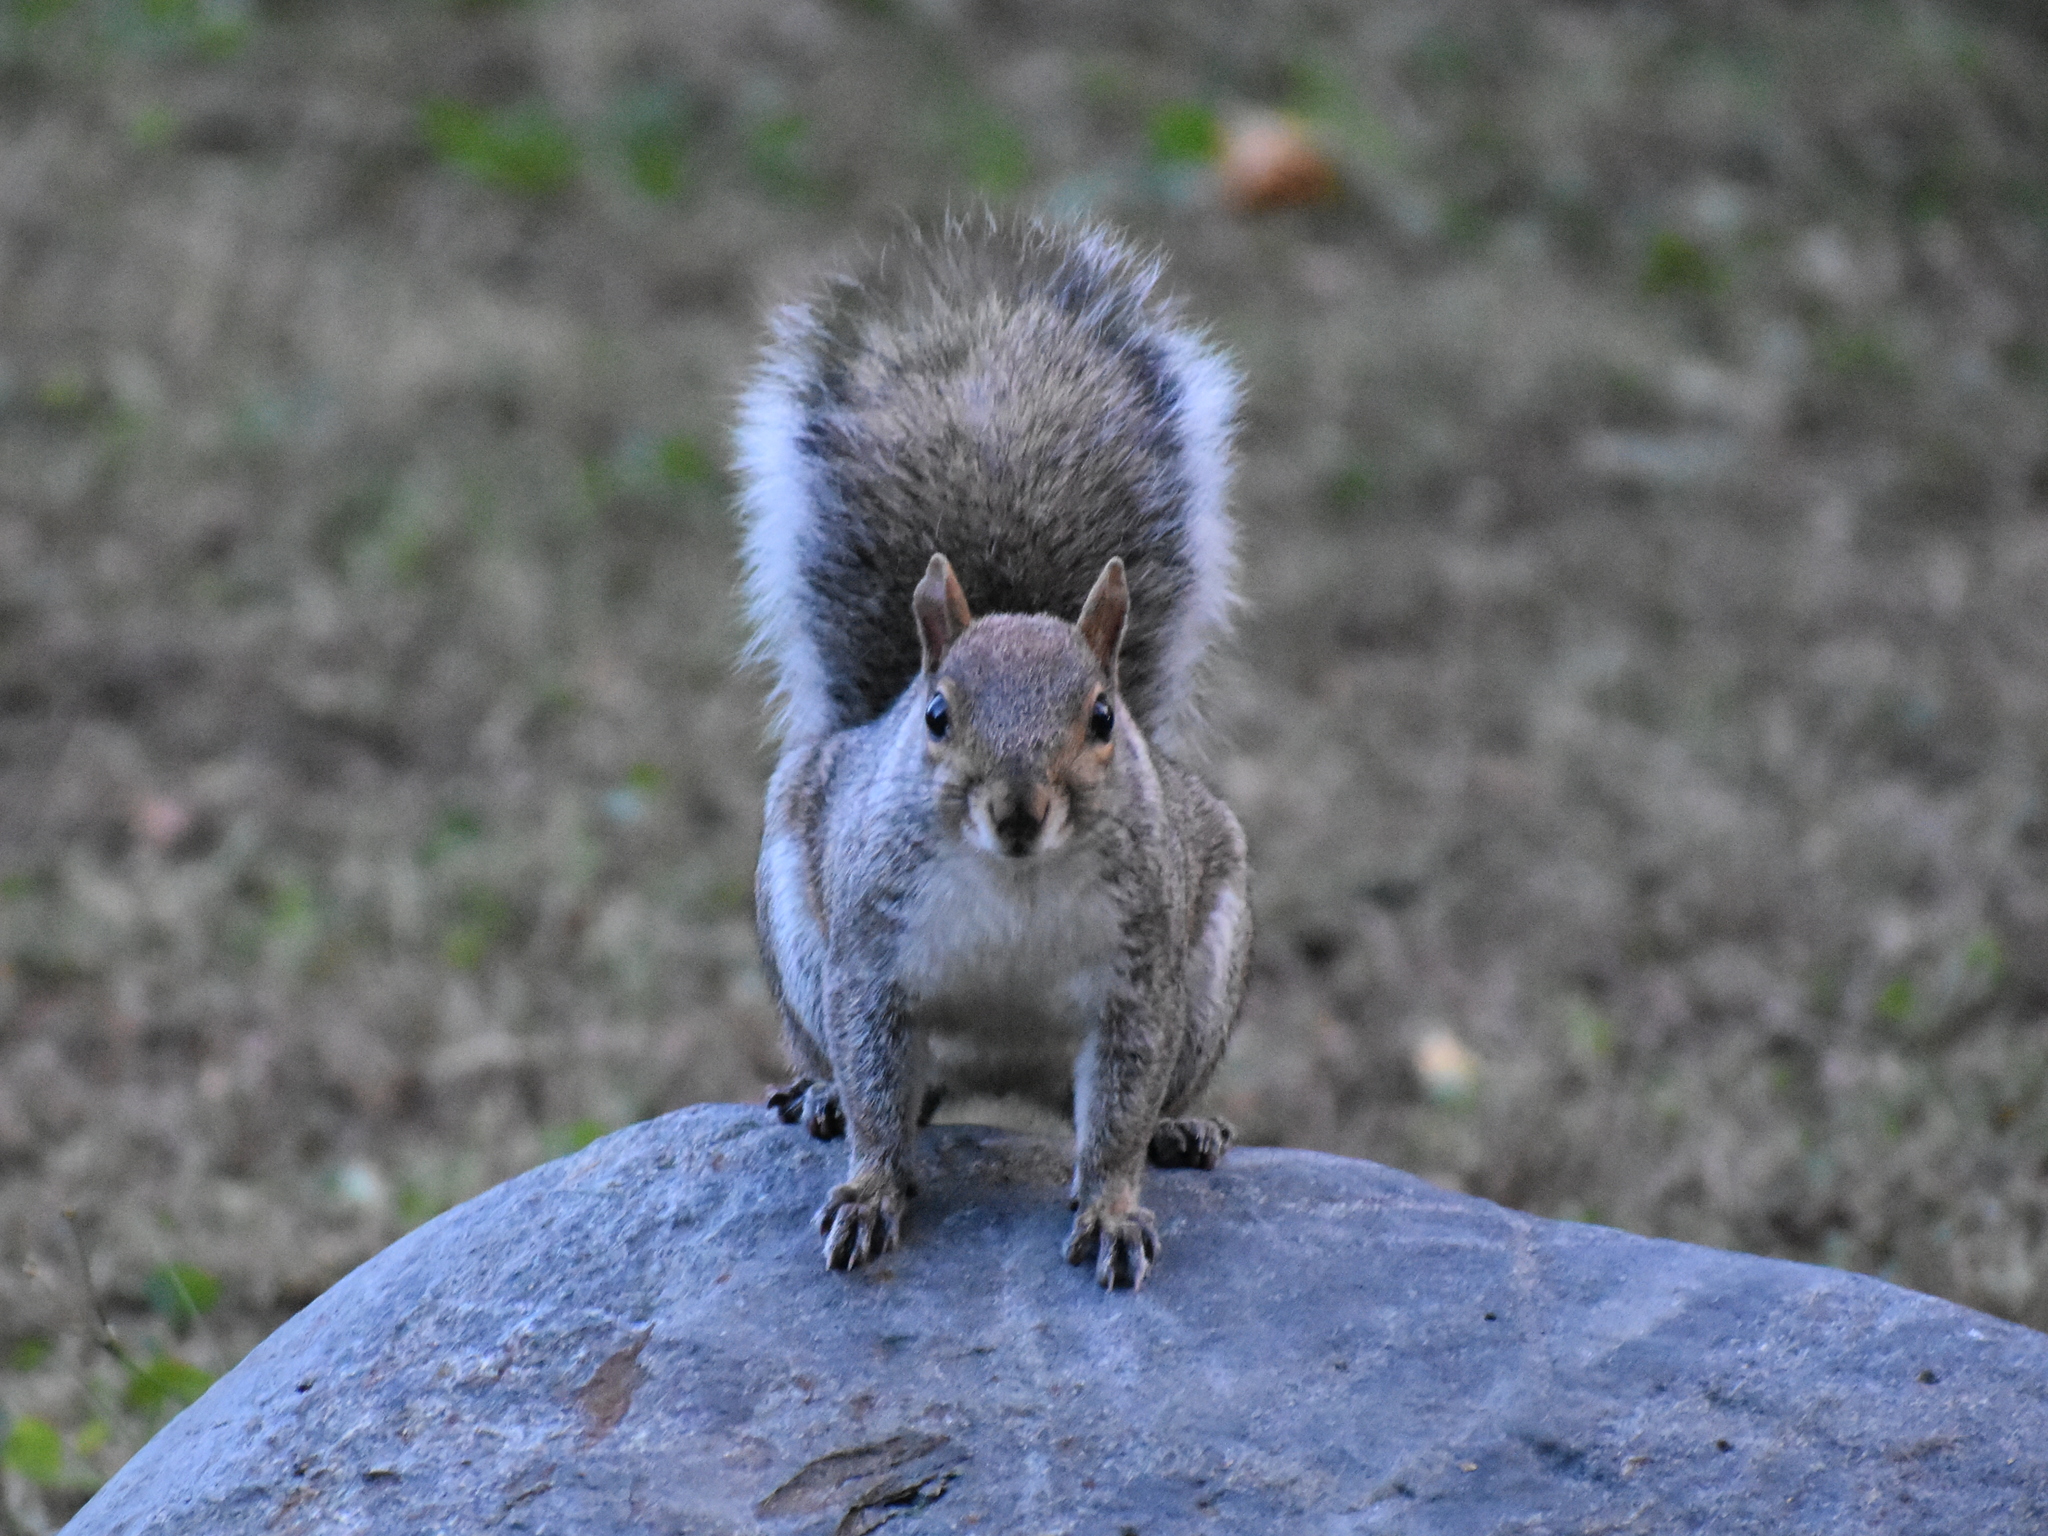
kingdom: Animalia
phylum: Chordata
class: Mammalia
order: Rodentia
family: Sciuridae
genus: Sciurus
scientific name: Sciurus carolinensis
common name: Eastern gray squirrel
